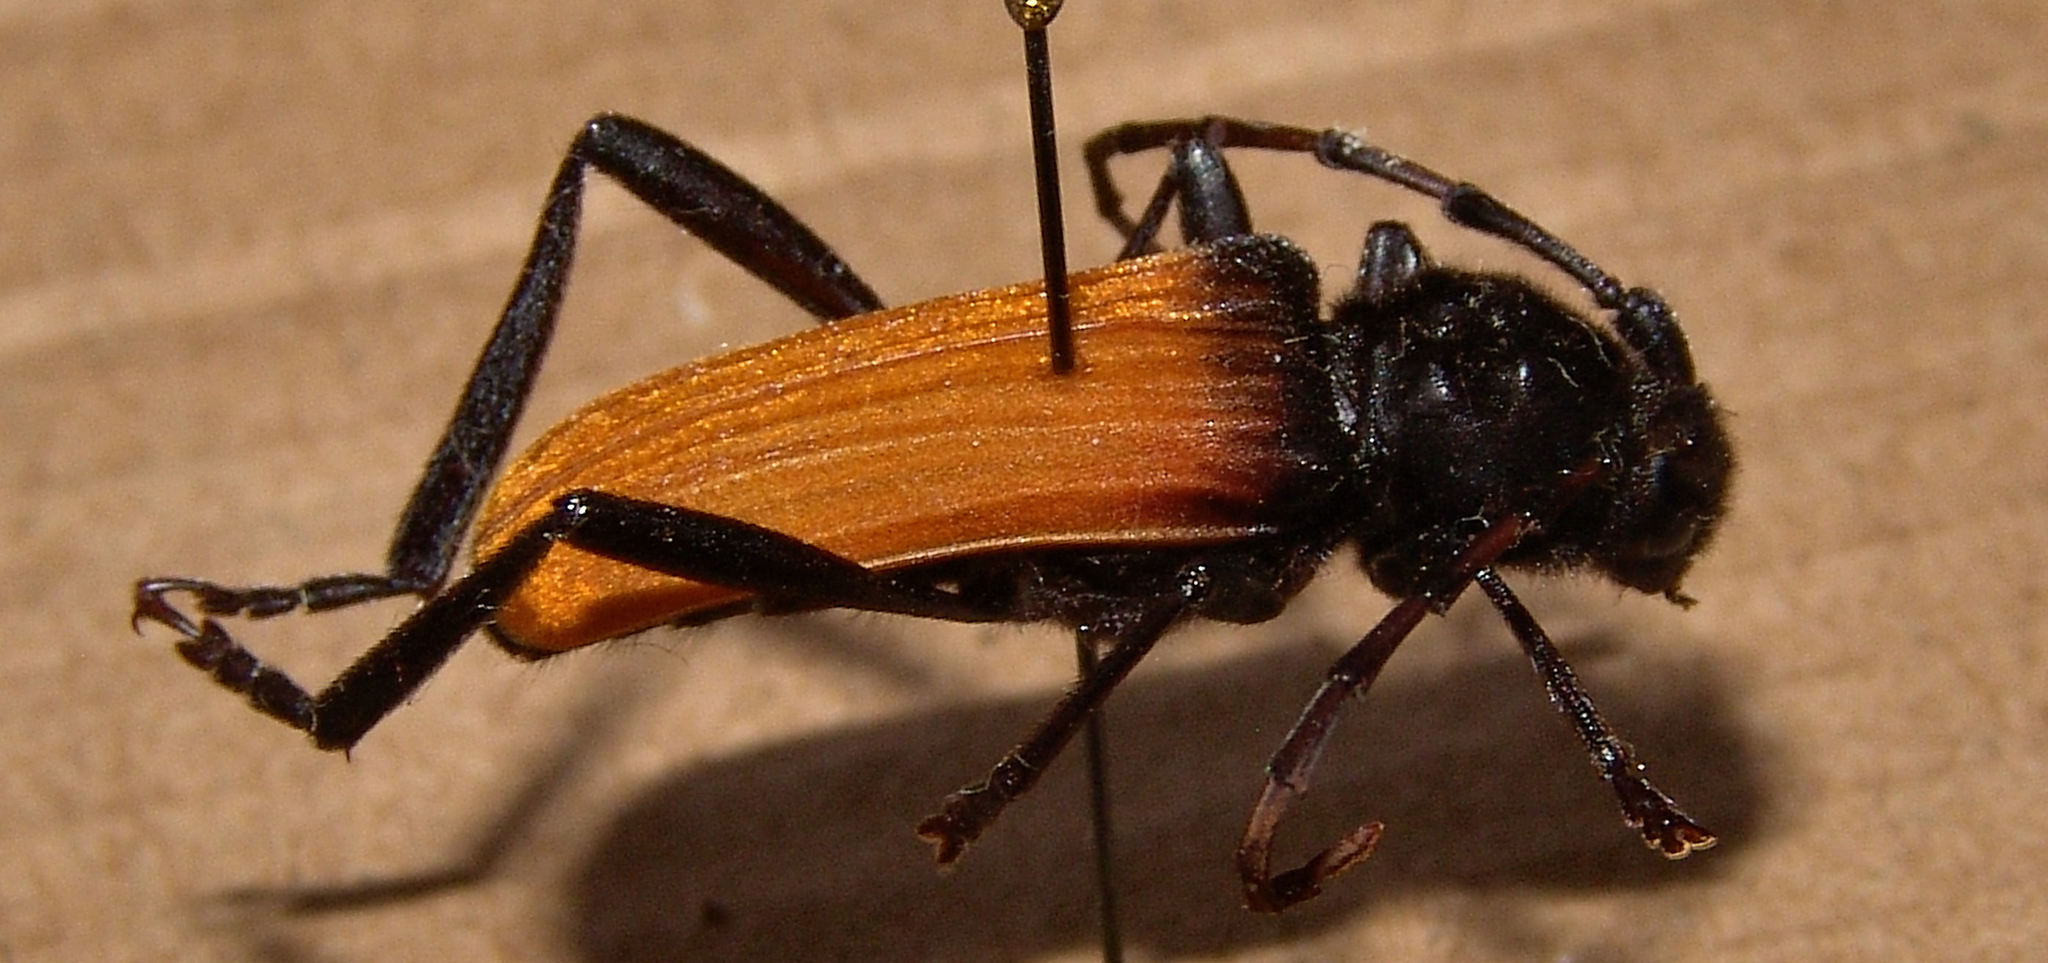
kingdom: Animalia
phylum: Arthropoda
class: Insecta
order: Coleoptera
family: Cerambycidae
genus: Tragidion
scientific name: Tragidion densiventre
